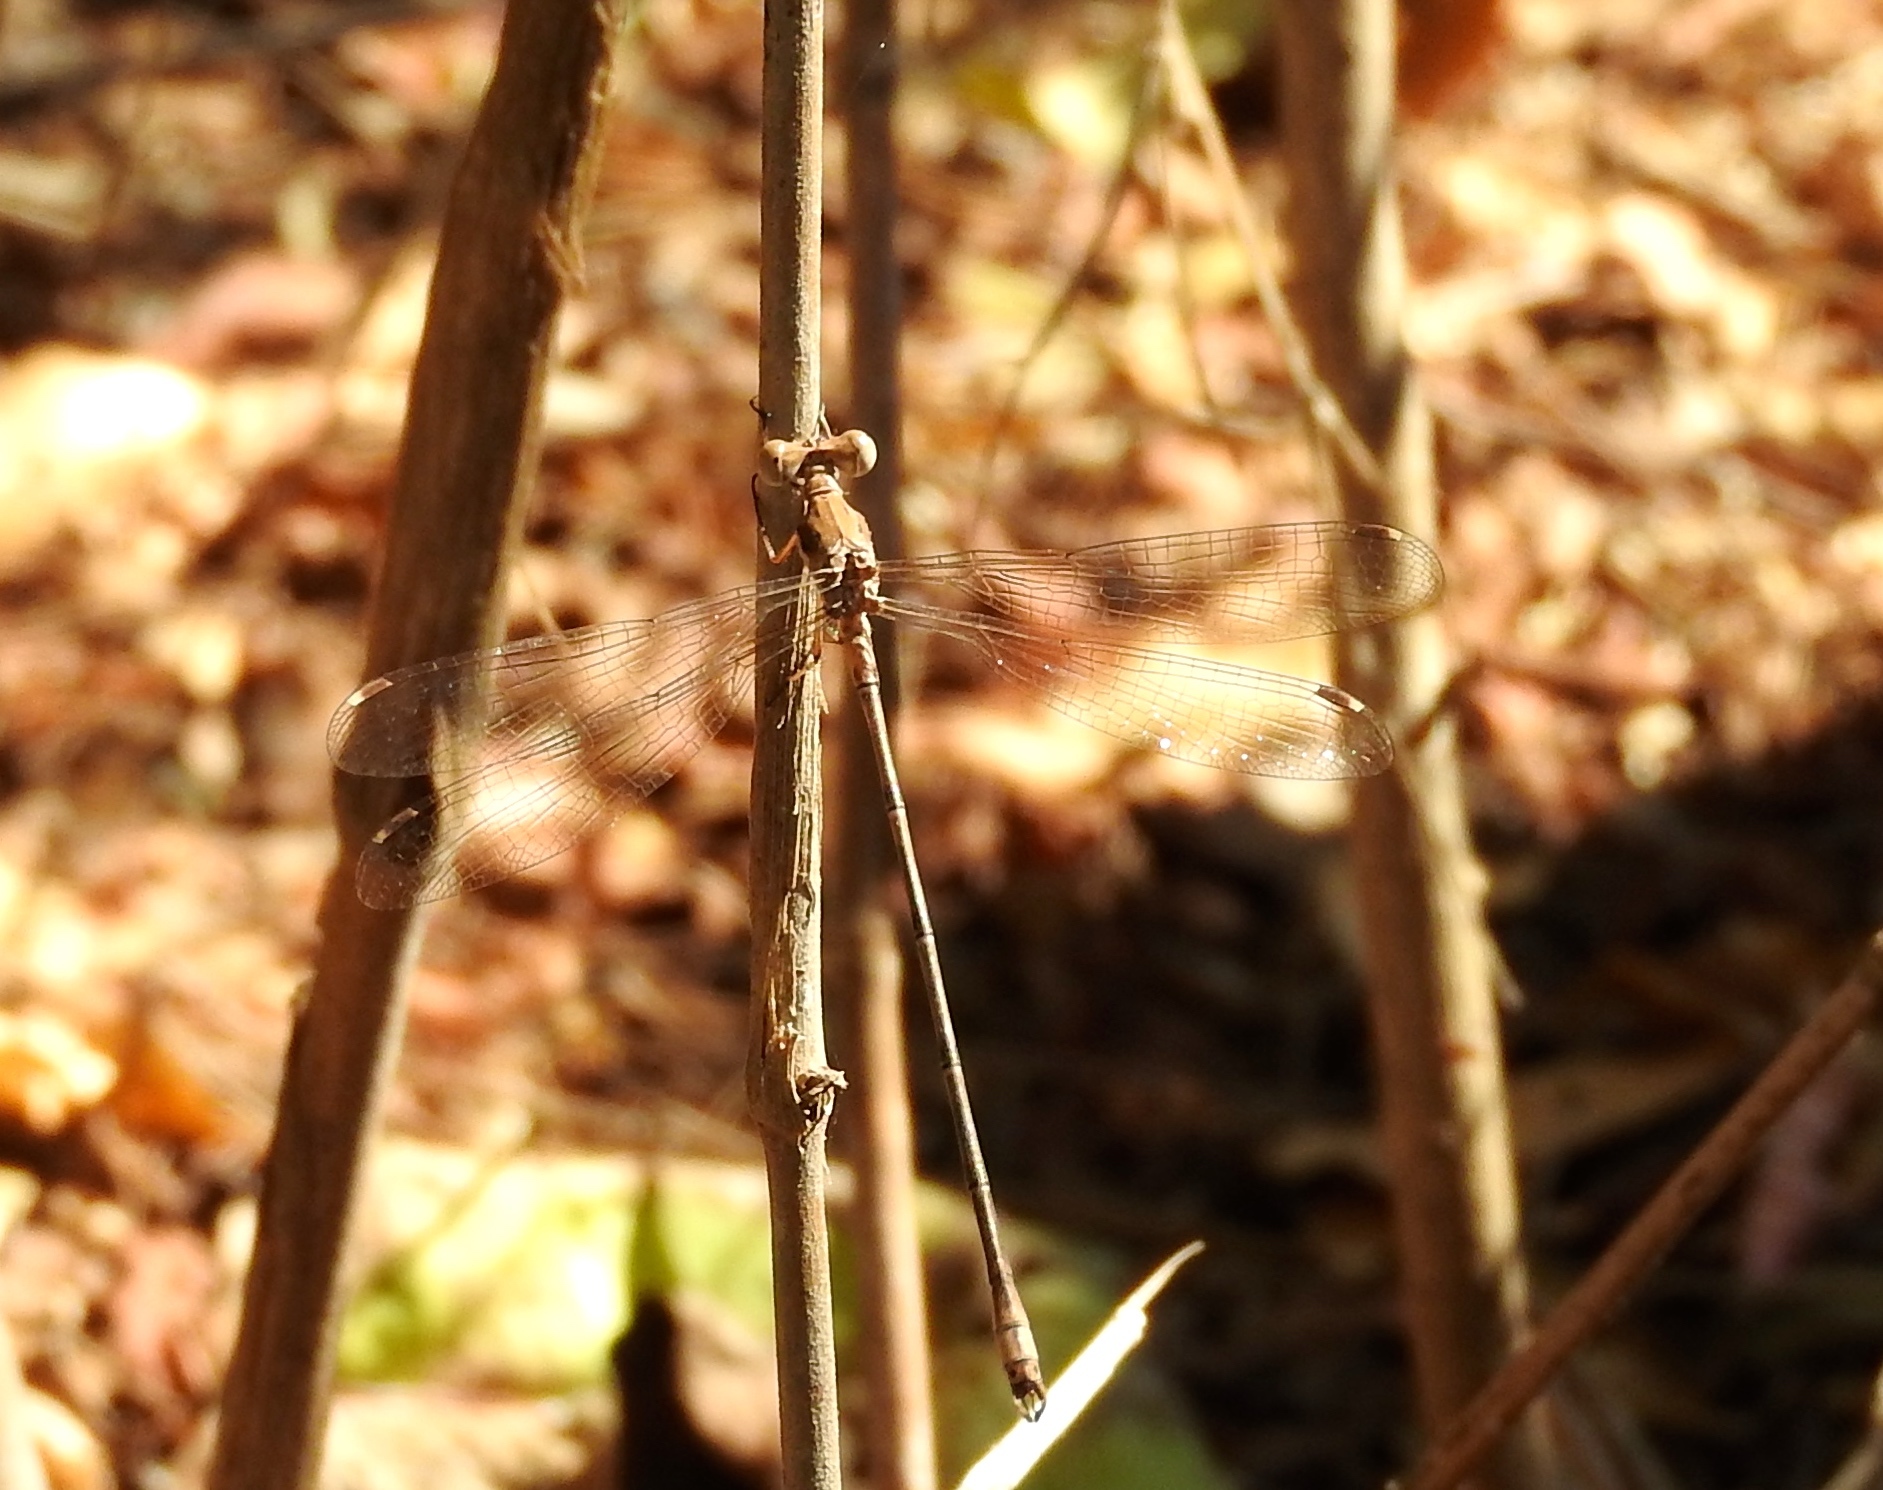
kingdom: Animalia
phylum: Arthropoda
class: Insecta
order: Odonata
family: Lestidae
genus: Lestes
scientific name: Lestes sigma
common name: Chalky spreadwing
